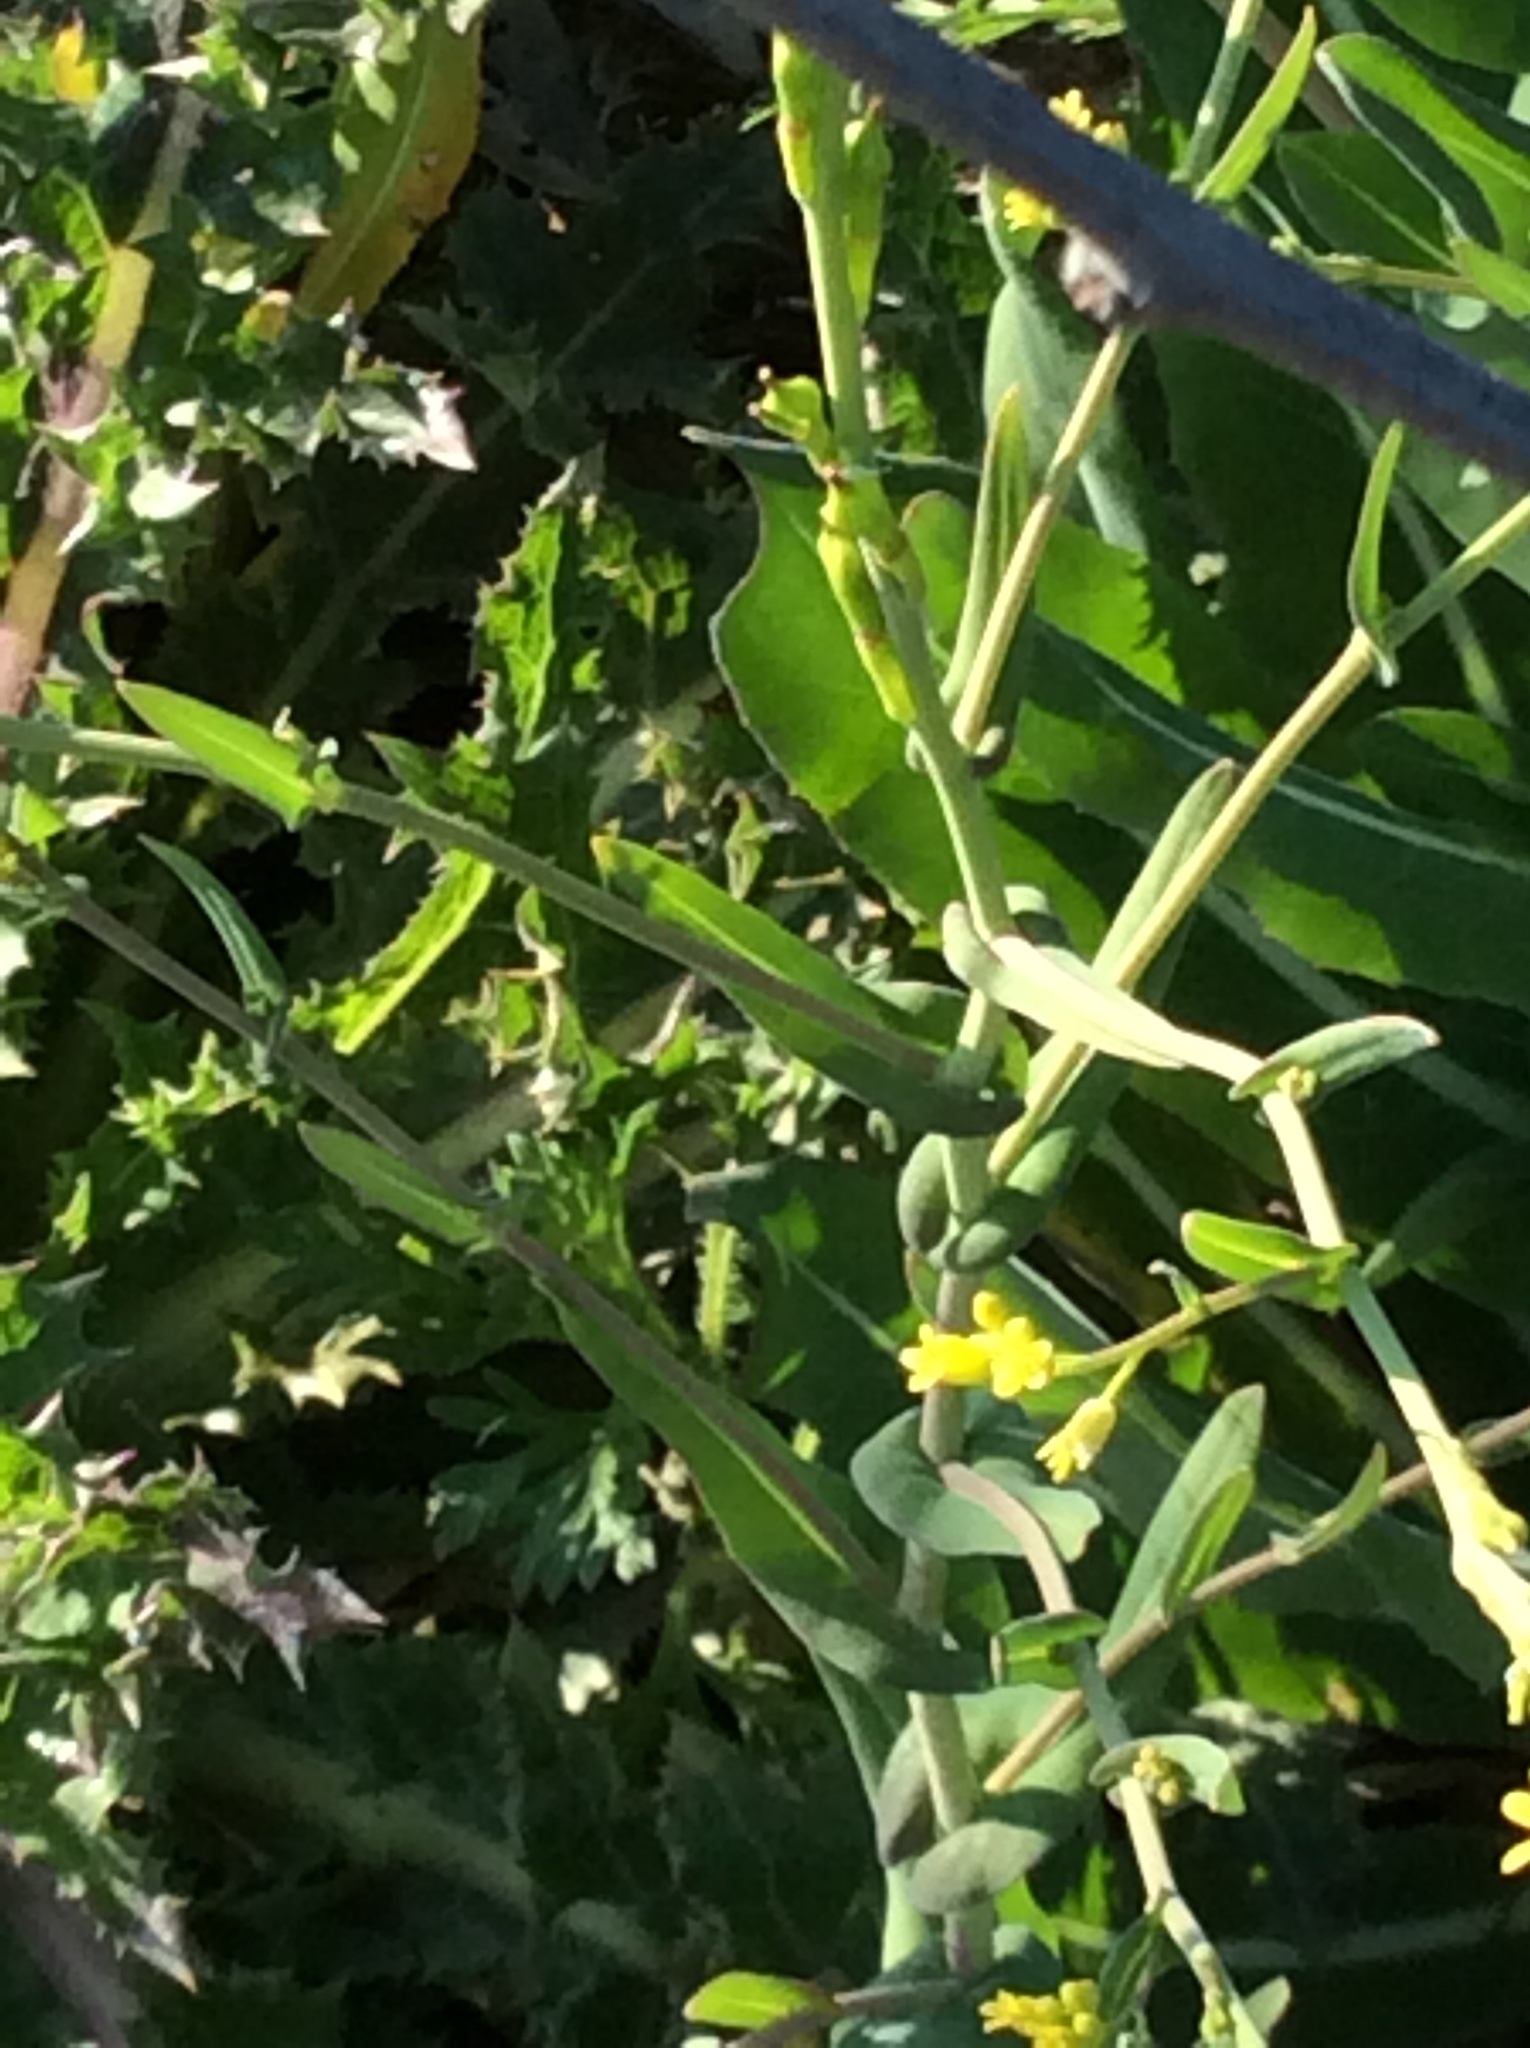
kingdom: Plantae
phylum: Tracheophyta
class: Magnoliopsida
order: Brassicales
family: Brassicaceae
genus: Rapistrum
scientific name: Rapistrum rugosum
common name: Annual bastardcabbage
